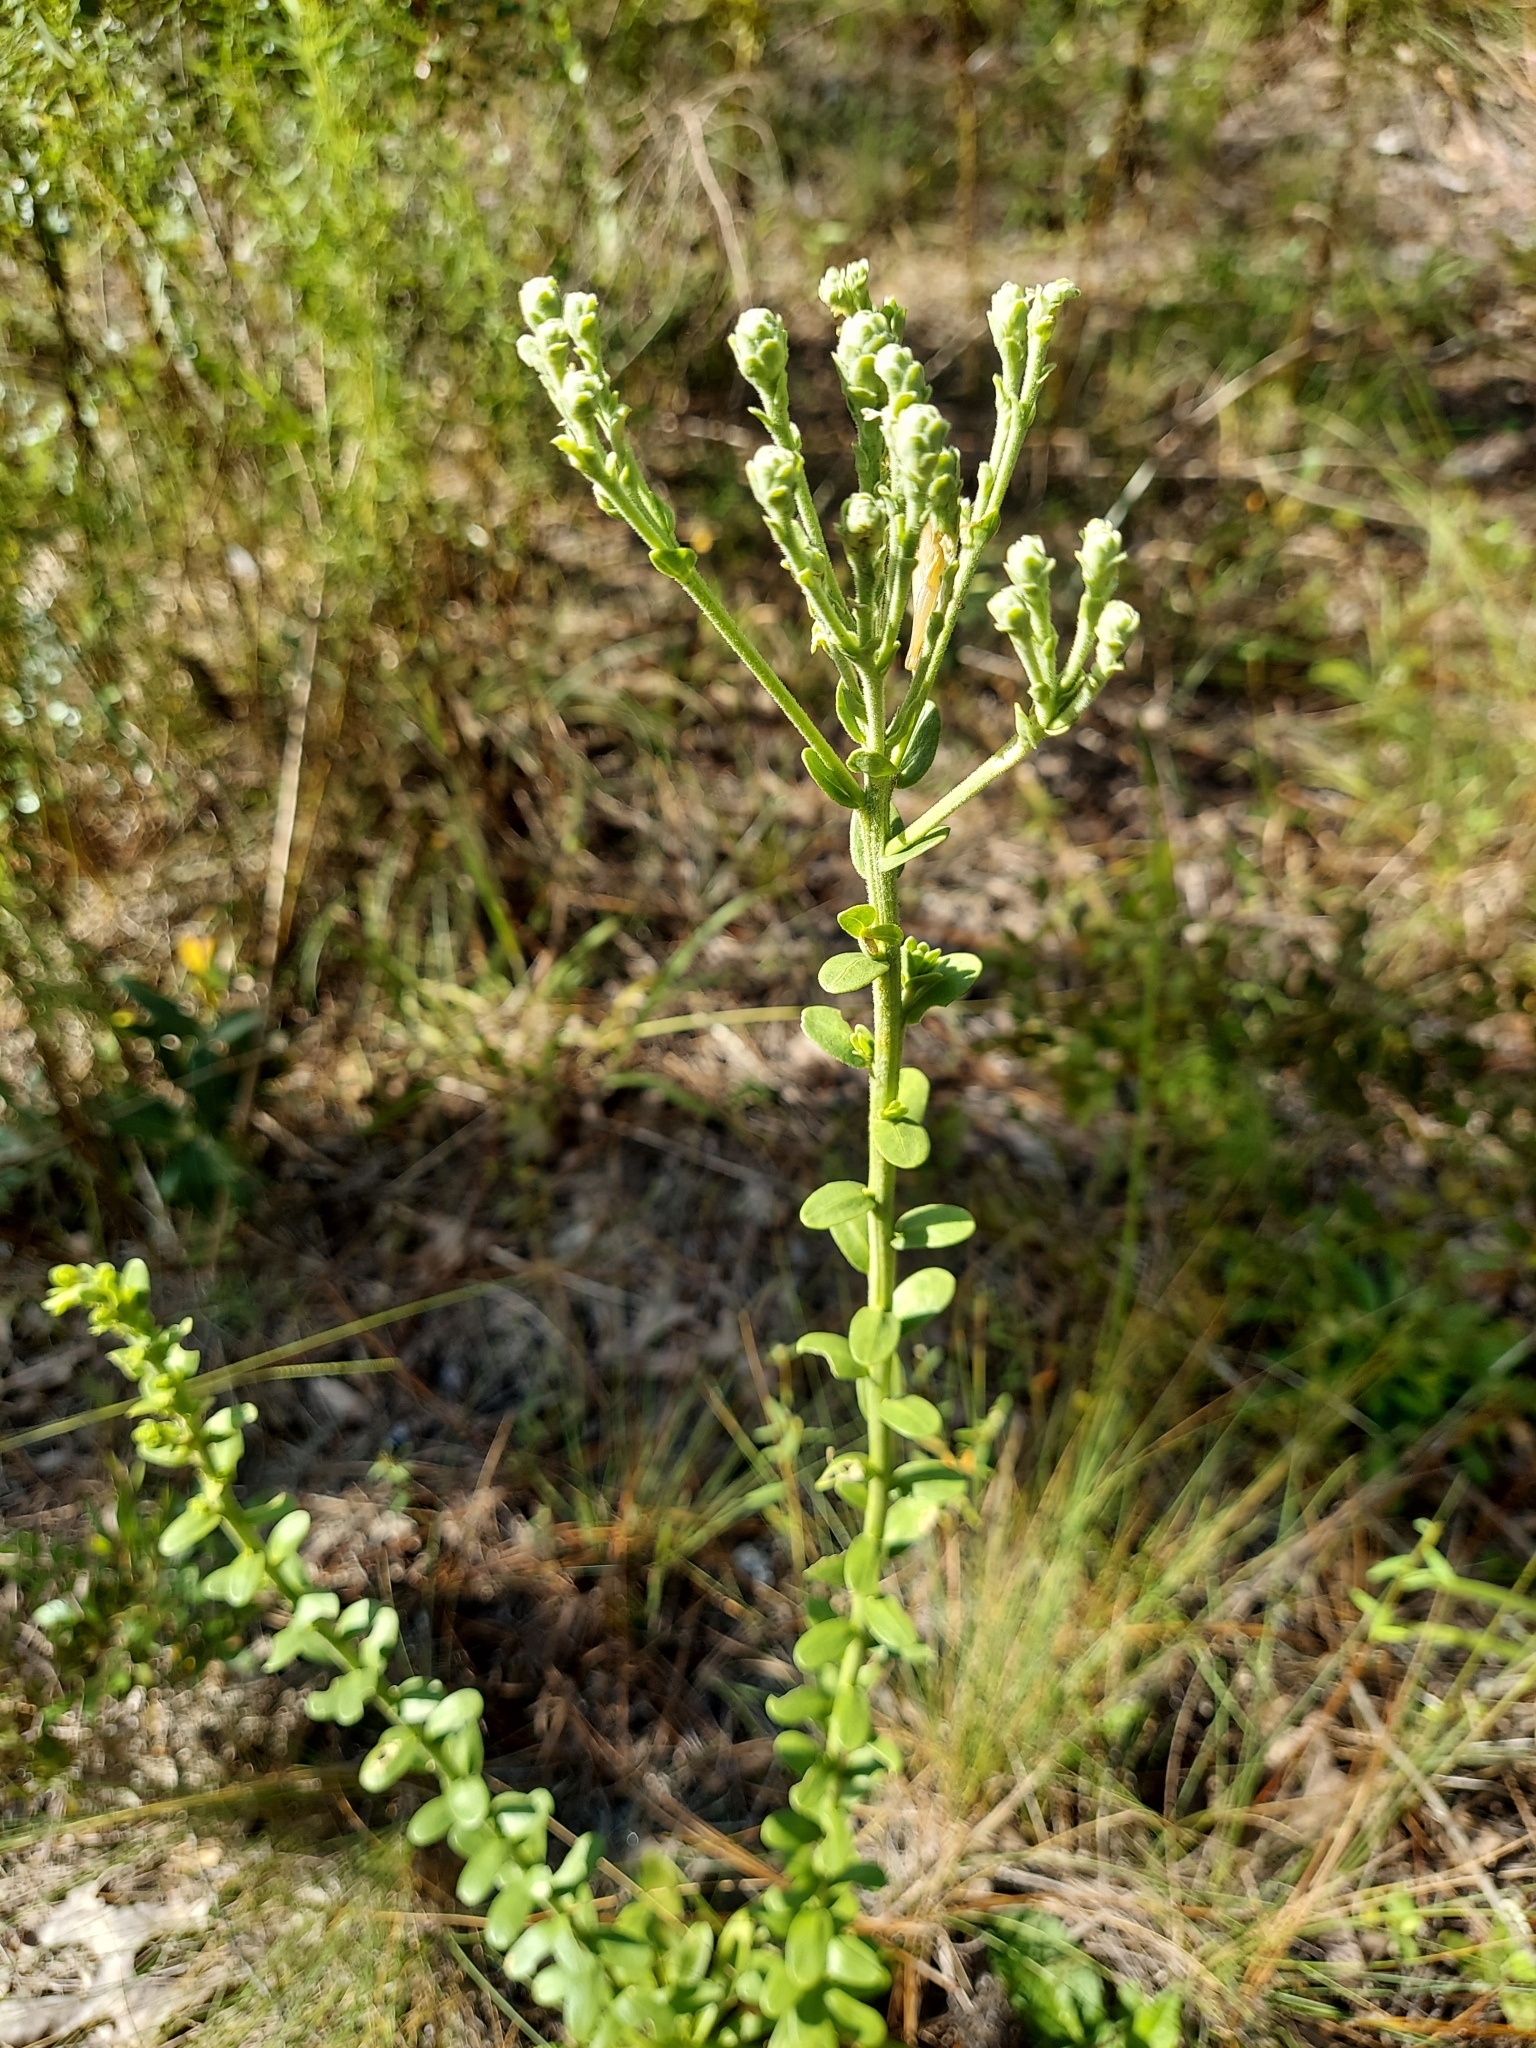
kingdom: Plantae
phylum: Tracheophyta
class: Magnoliopsida
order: Asterales
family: Asteraceae
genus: Carphephorus
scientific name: Carphephorus corymbosus
